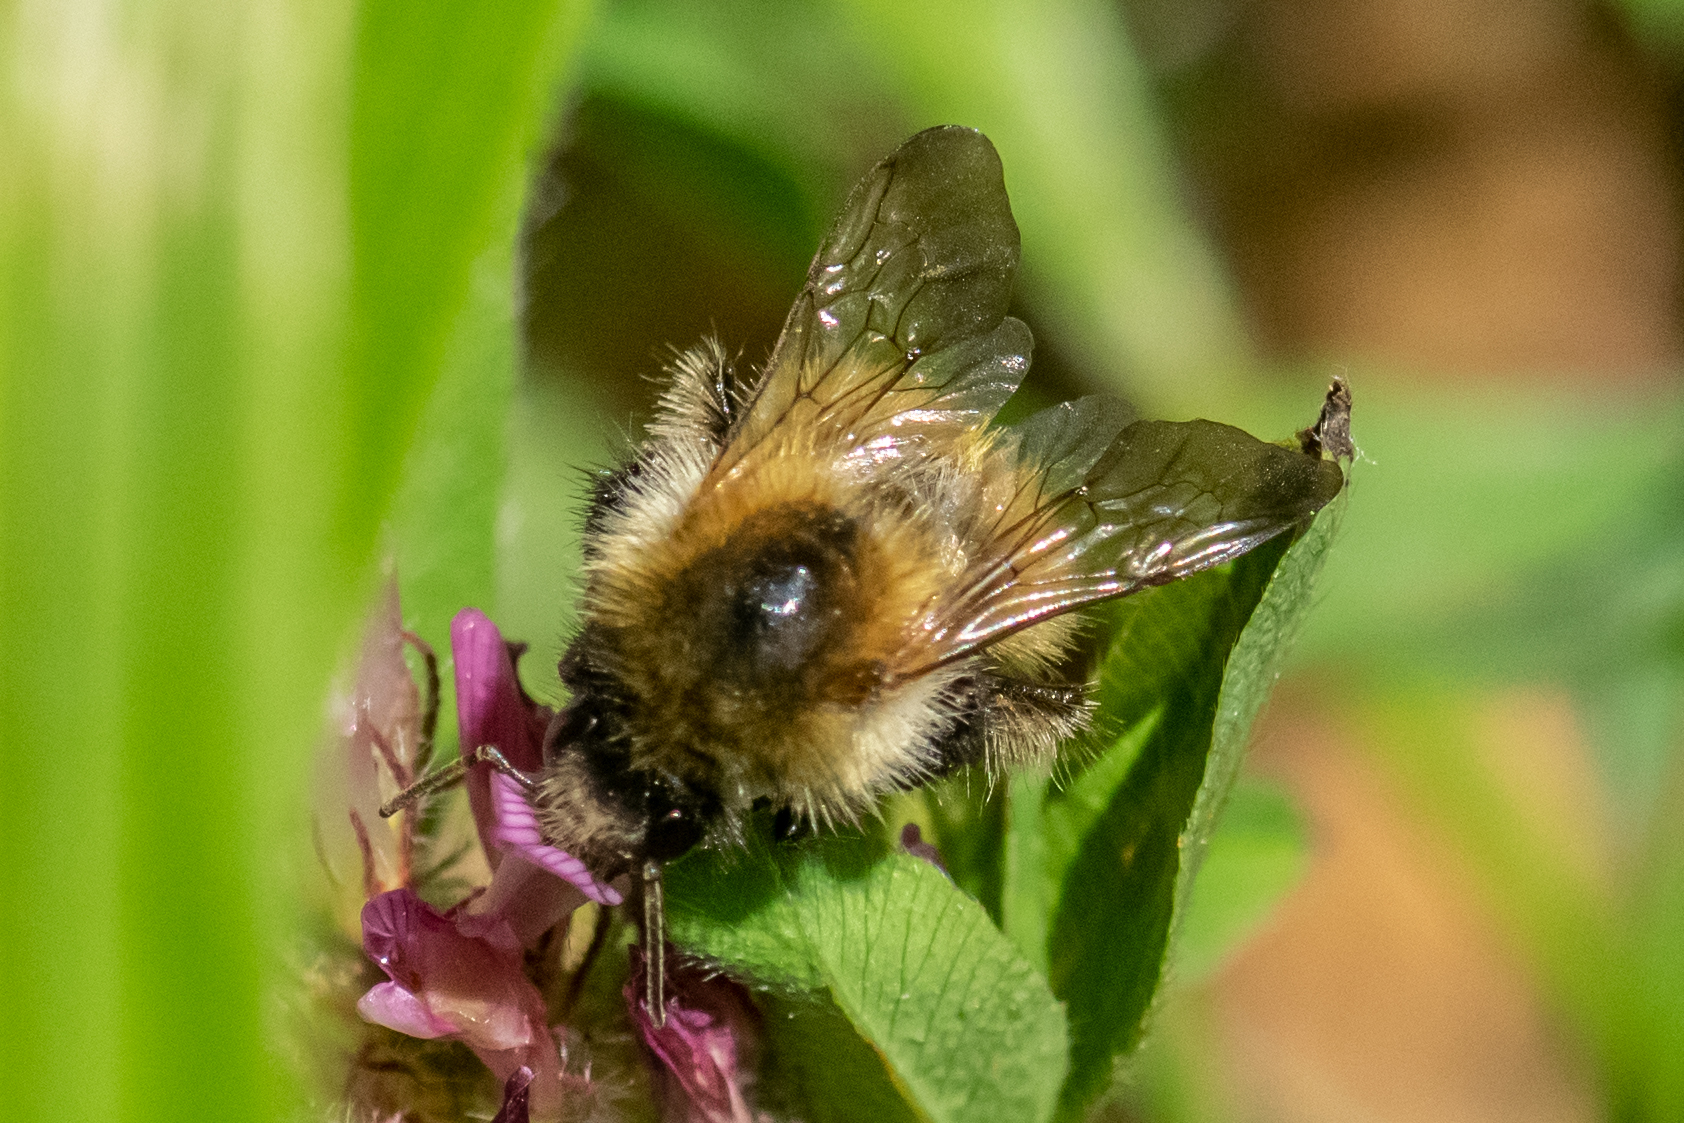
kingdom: Animalia
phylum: Arthropoda
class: Insecta
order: Hymenoptera
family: Apidae
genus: Bombus
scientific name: Bombus pascuorum
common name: Common carder bee
